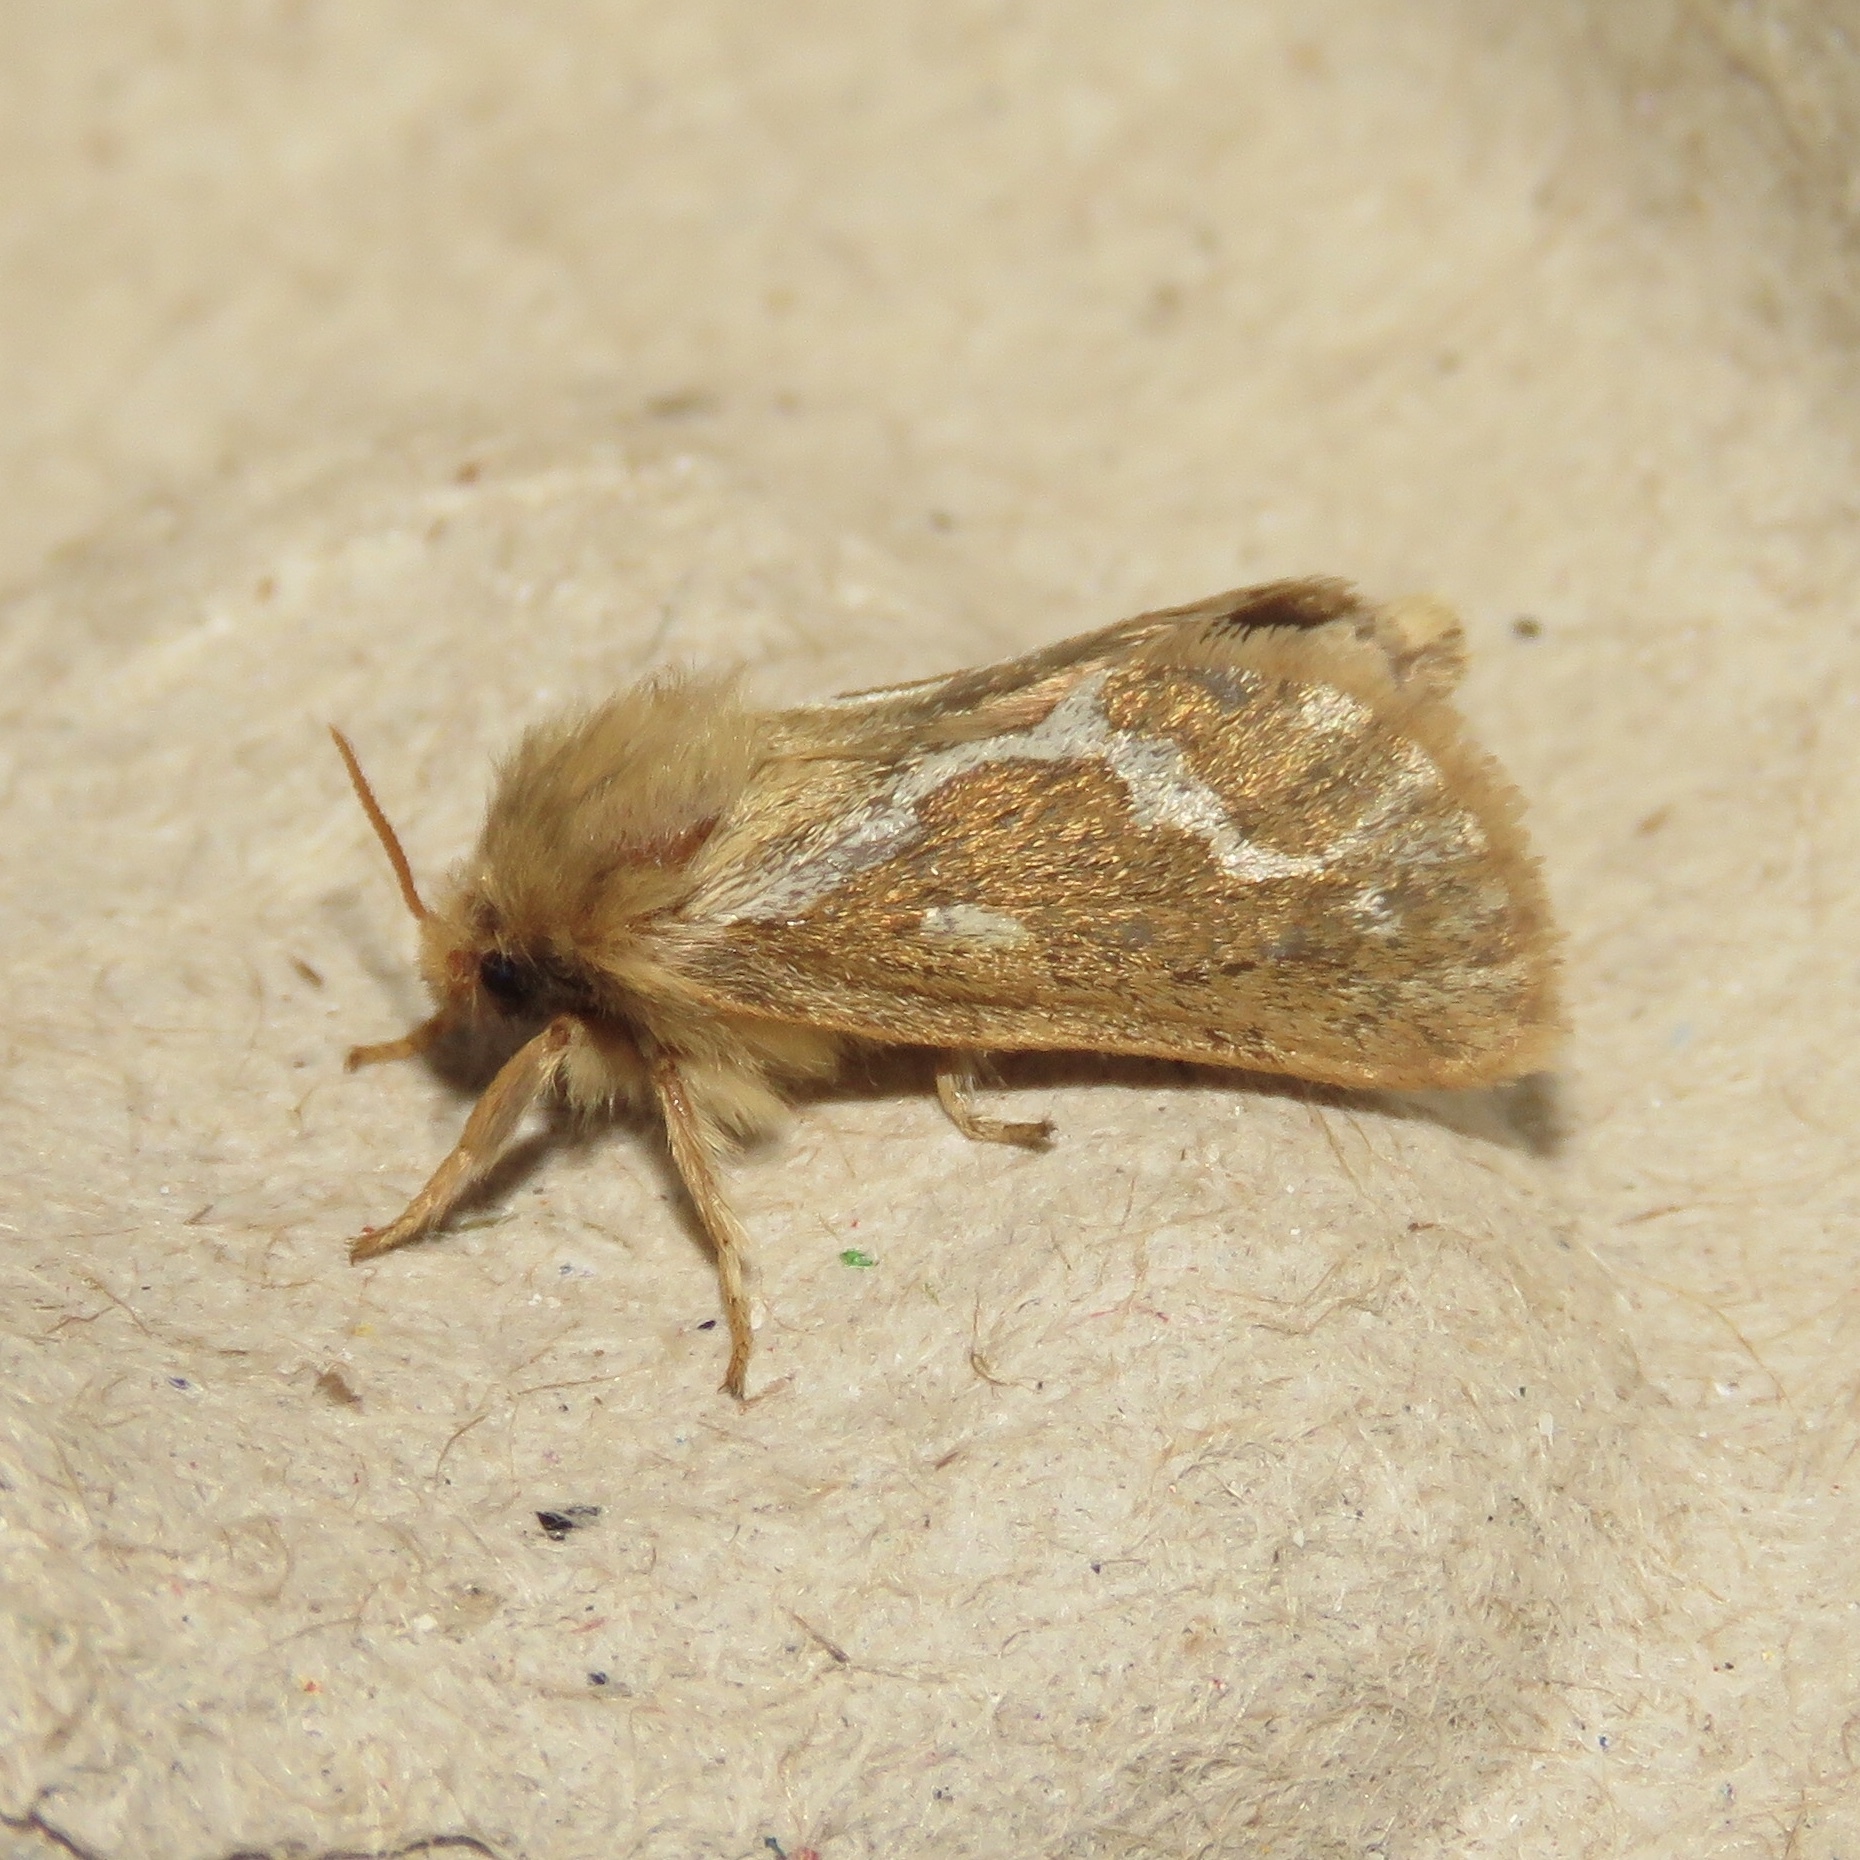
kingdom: Animalia
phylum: Arthropoda
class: Insecta
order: Lepidoptera
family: Hepialidae
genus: Korscheltellus
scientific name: Korscheltellus lupulina
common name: Common swift
